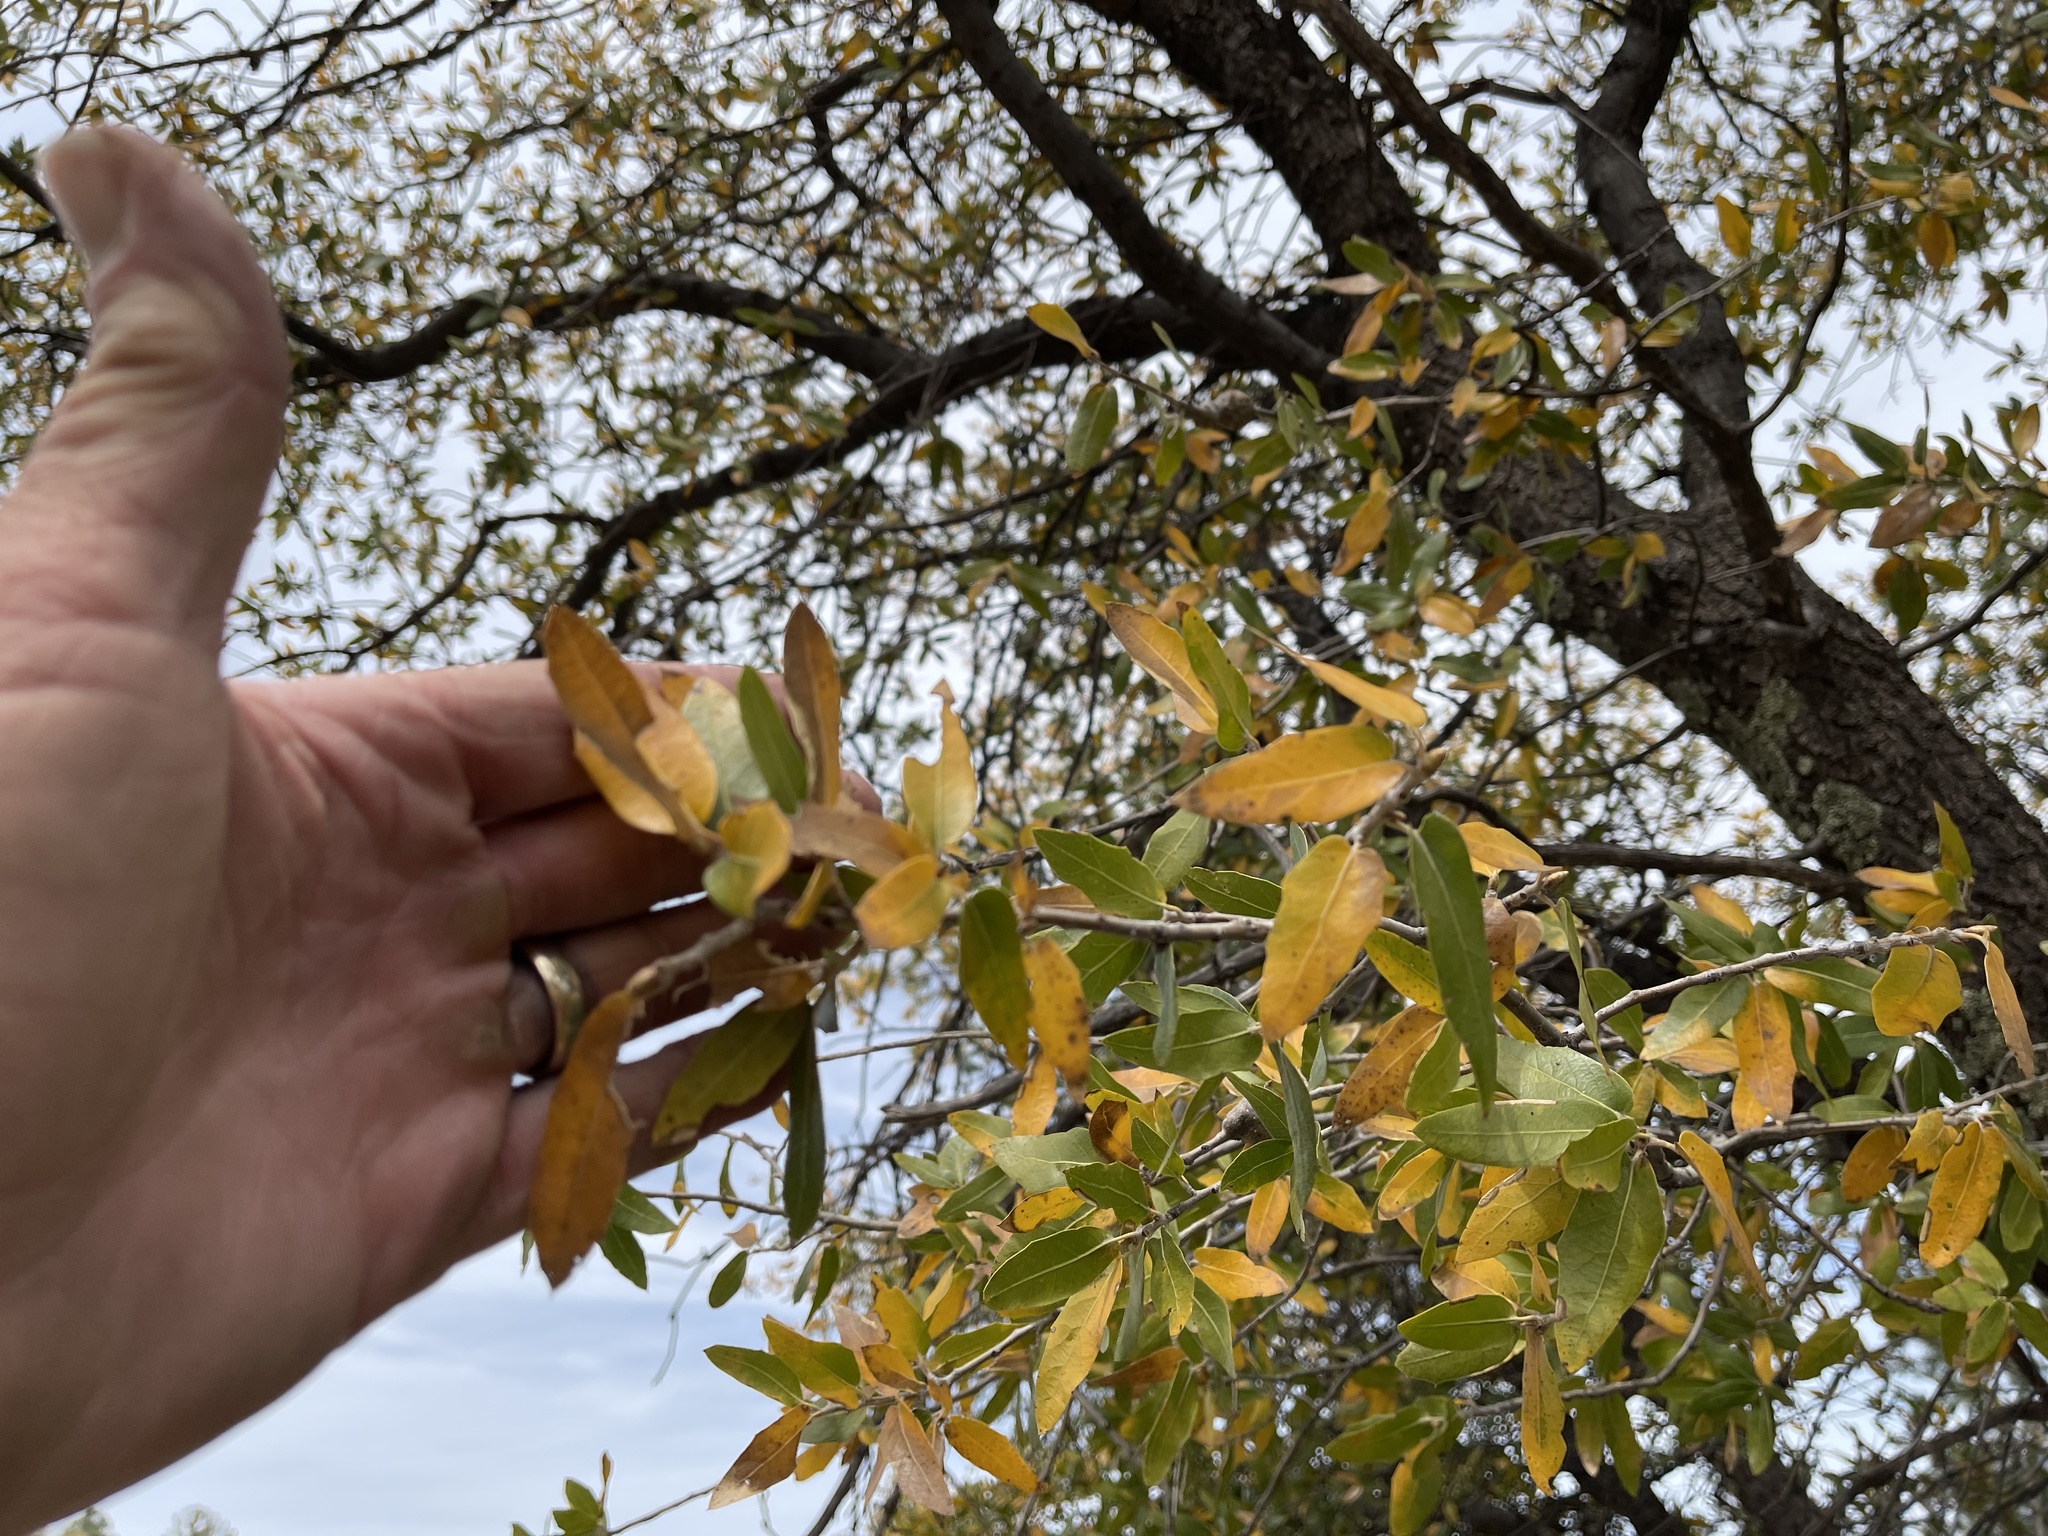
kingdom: Plantae
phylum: Tracheophyta
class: Magnoliopsida
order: Fagales
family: Fagaceae
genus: Quercus
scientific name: Quercus emoryi
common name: Emory oak
